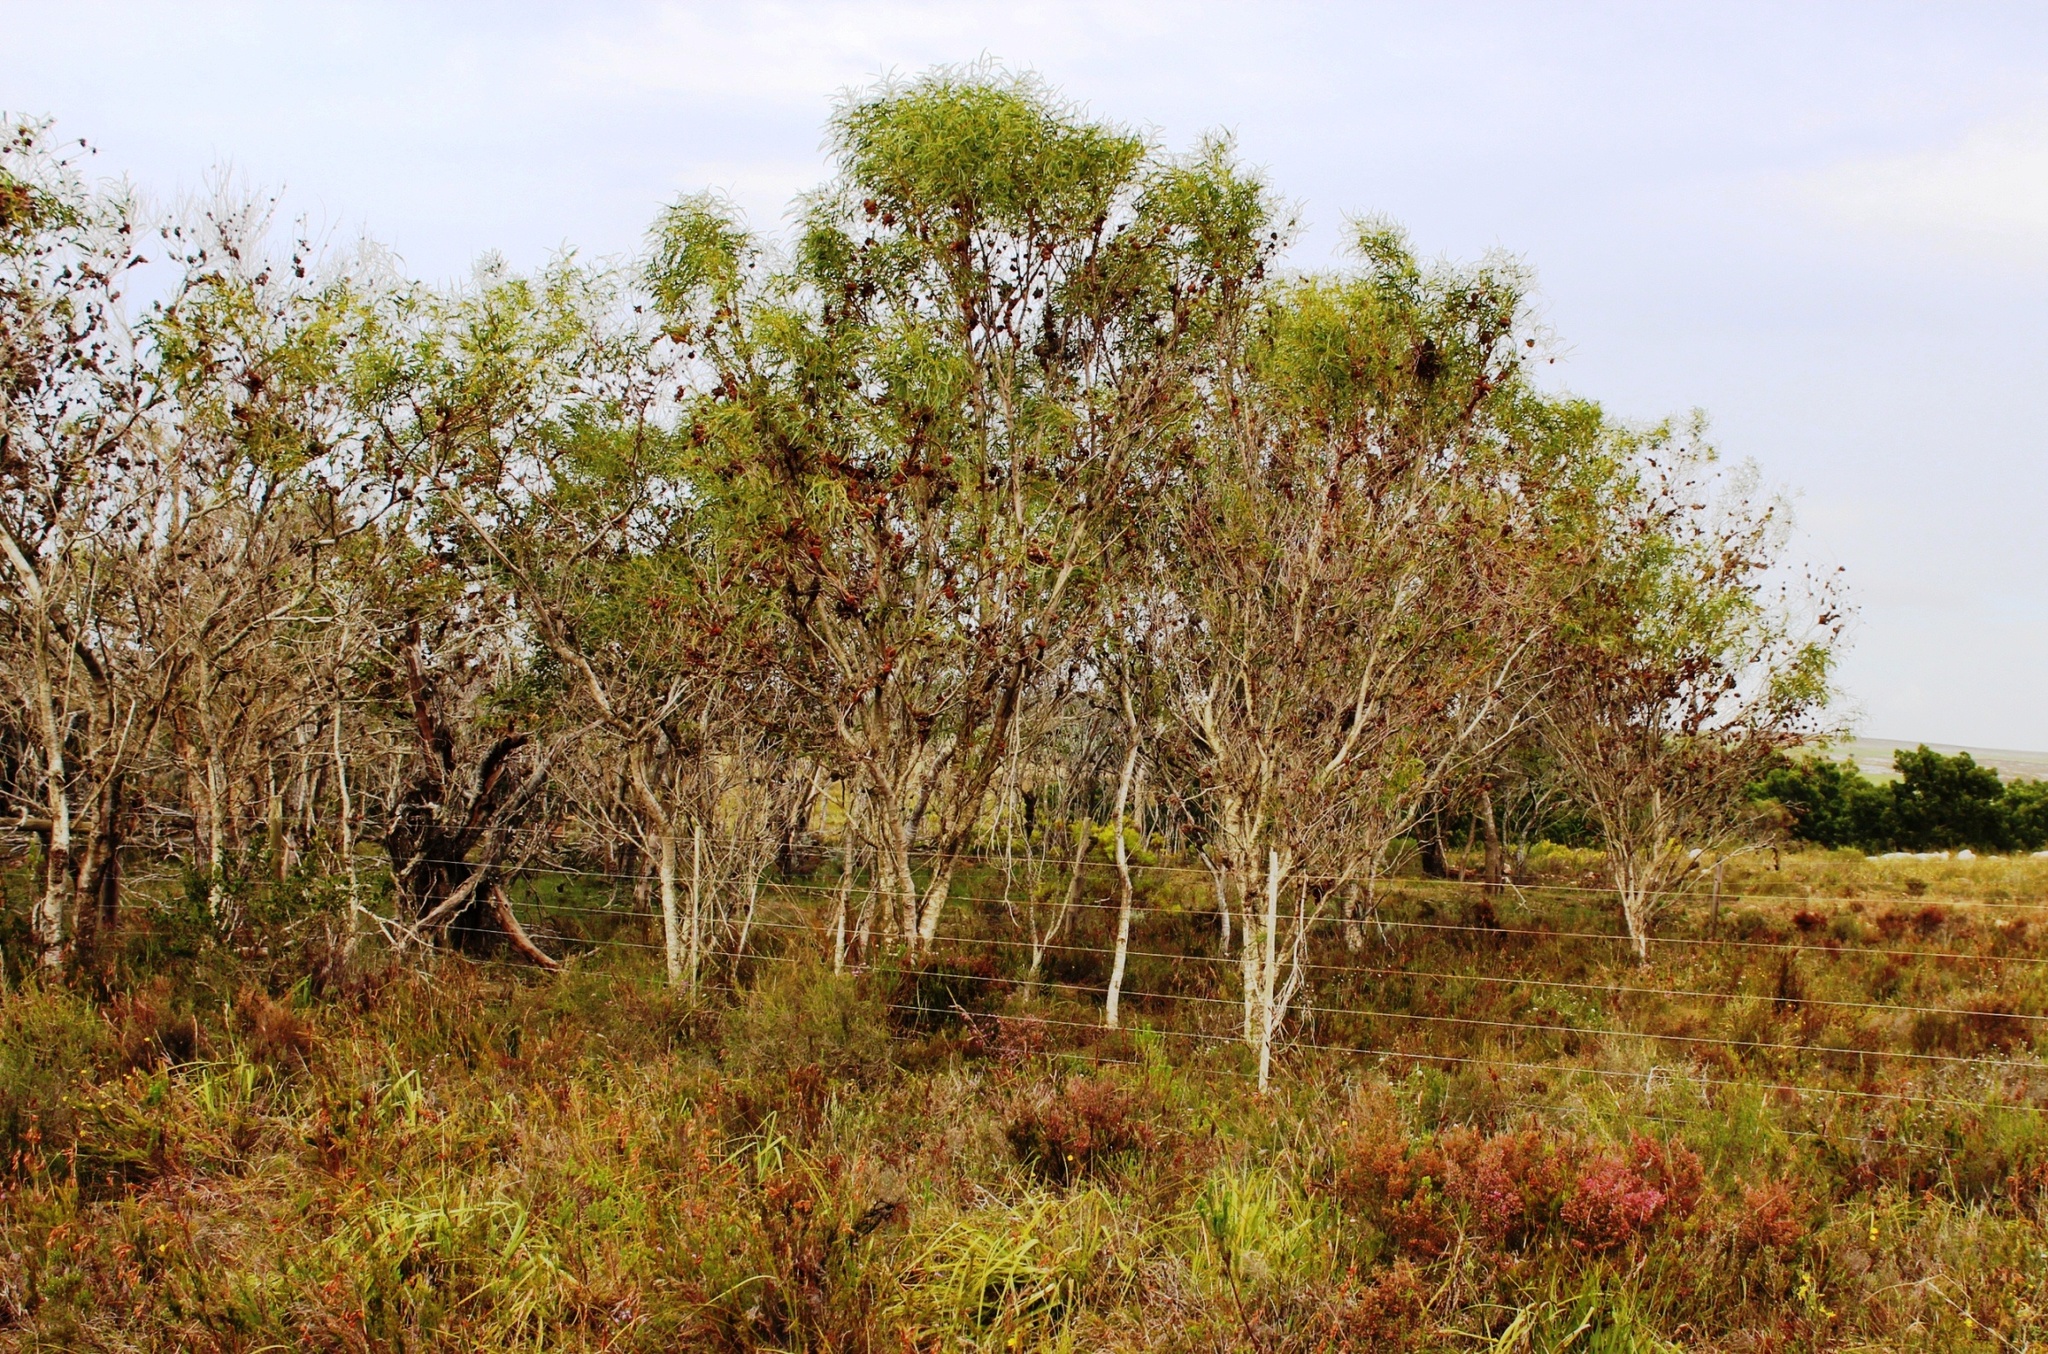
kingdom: Plantae
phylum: Tracheophyta
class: Magnoliopsida
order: Fabales
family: Fabaceae
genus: Acacia
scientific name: Acacia saligna
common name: Orange wattle
